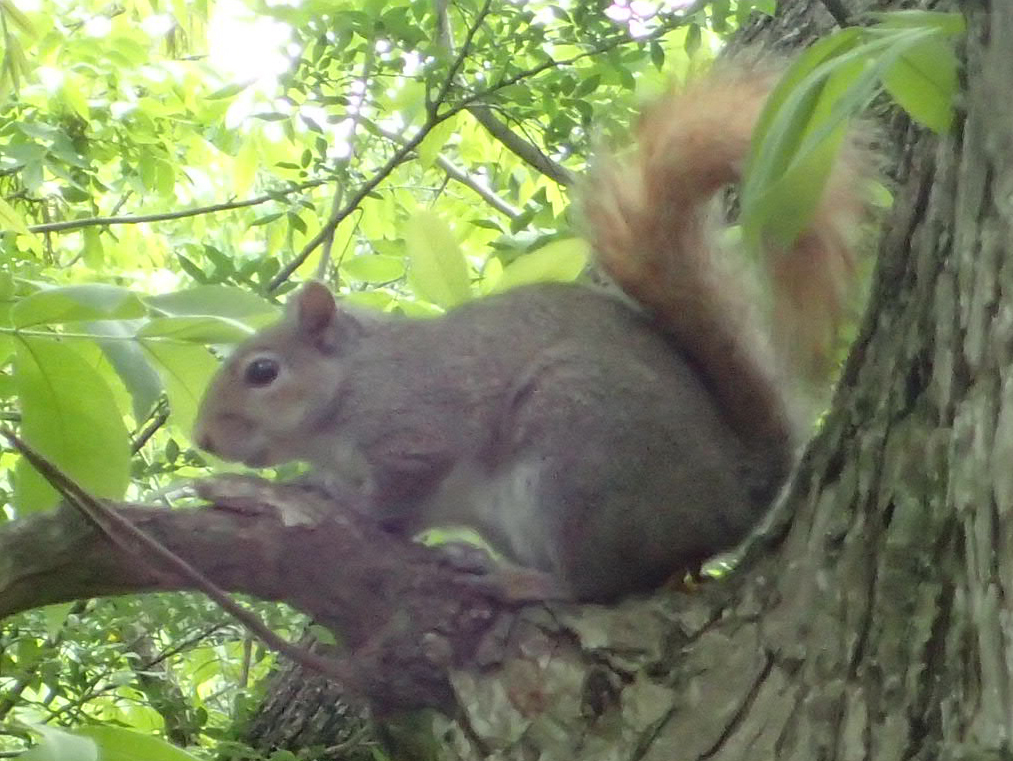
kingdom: Animalia
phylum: Chordata
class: Mammalia
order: Rodentia
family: Sciuridae
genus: Sciurus
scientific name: Sciurus carolinensis
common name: Eastern gray squirrel
